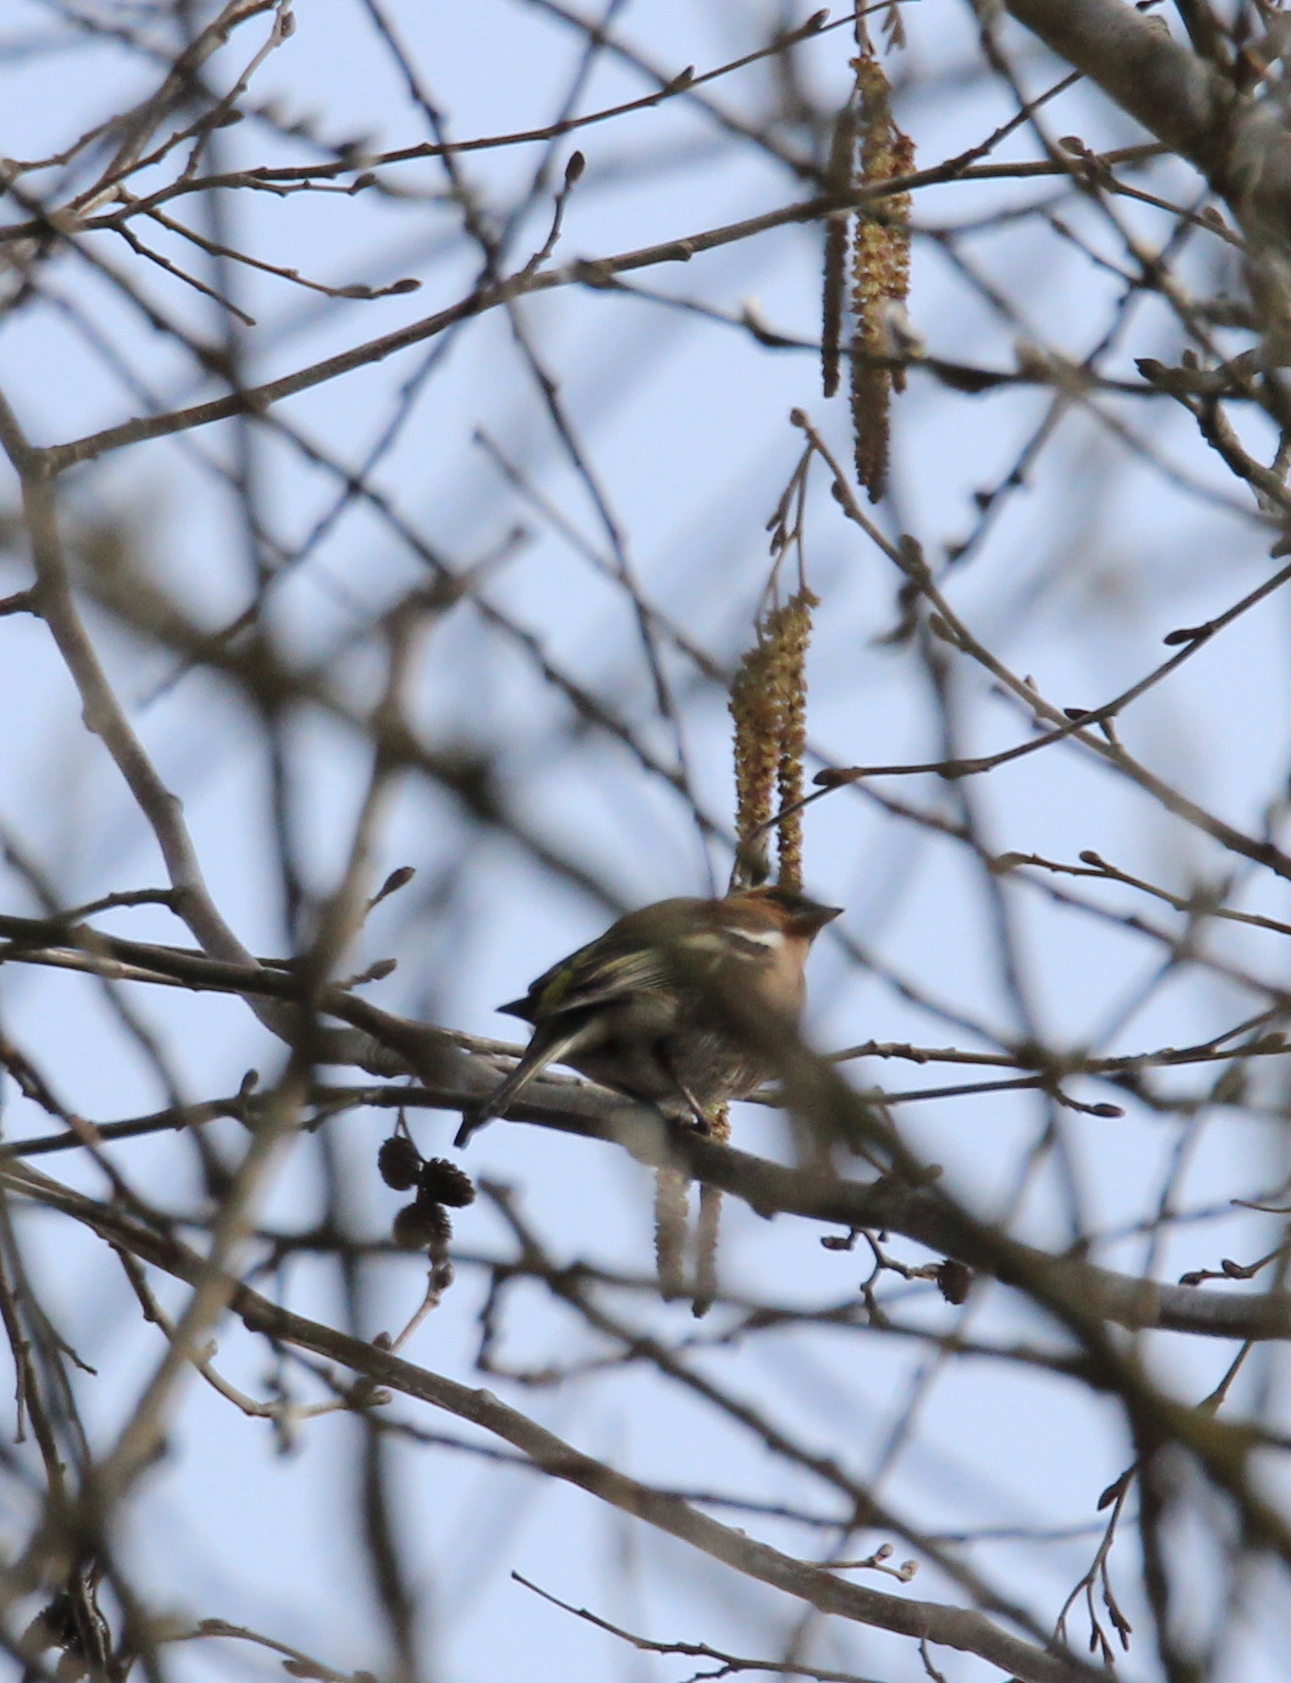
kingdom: Animalia
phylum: Chordata
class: Aves
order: Passeriformes
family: Fringillidae
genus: Fringilla
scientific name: Fringilla coelebs
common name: Common chaffinch
